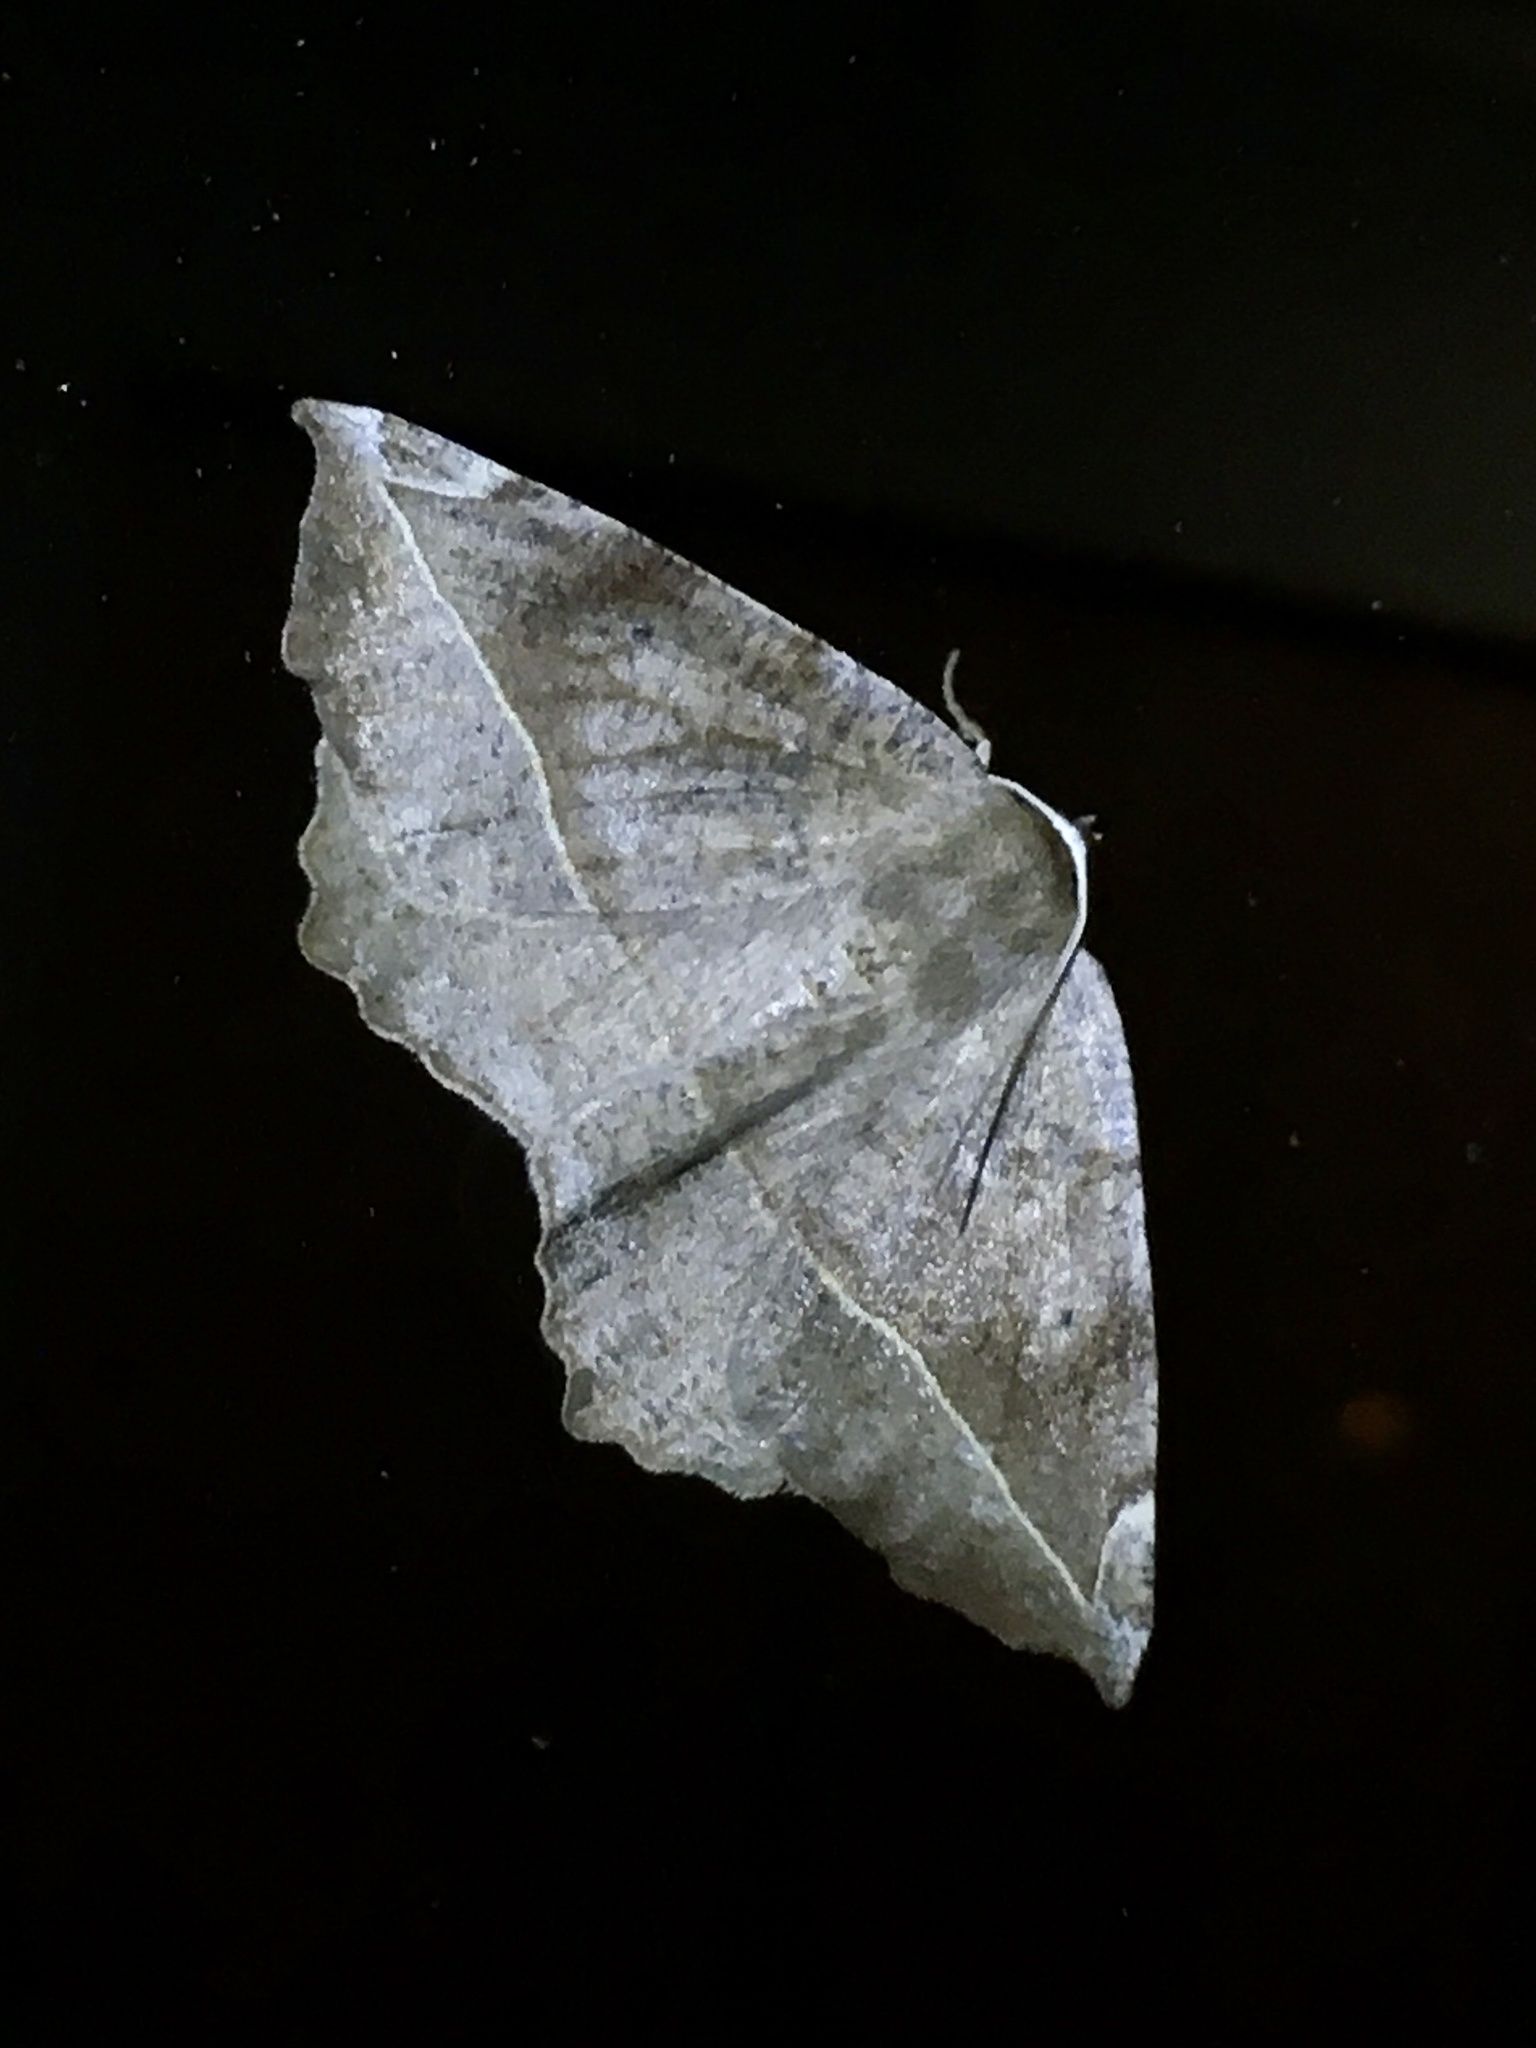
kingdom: Animalia
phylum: Arthropoda
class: Insecta
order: Lepidoptera
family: Geometridae
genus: Eutrapela
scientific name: Eutrapela clemataria
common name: Curved-toothed geometer
